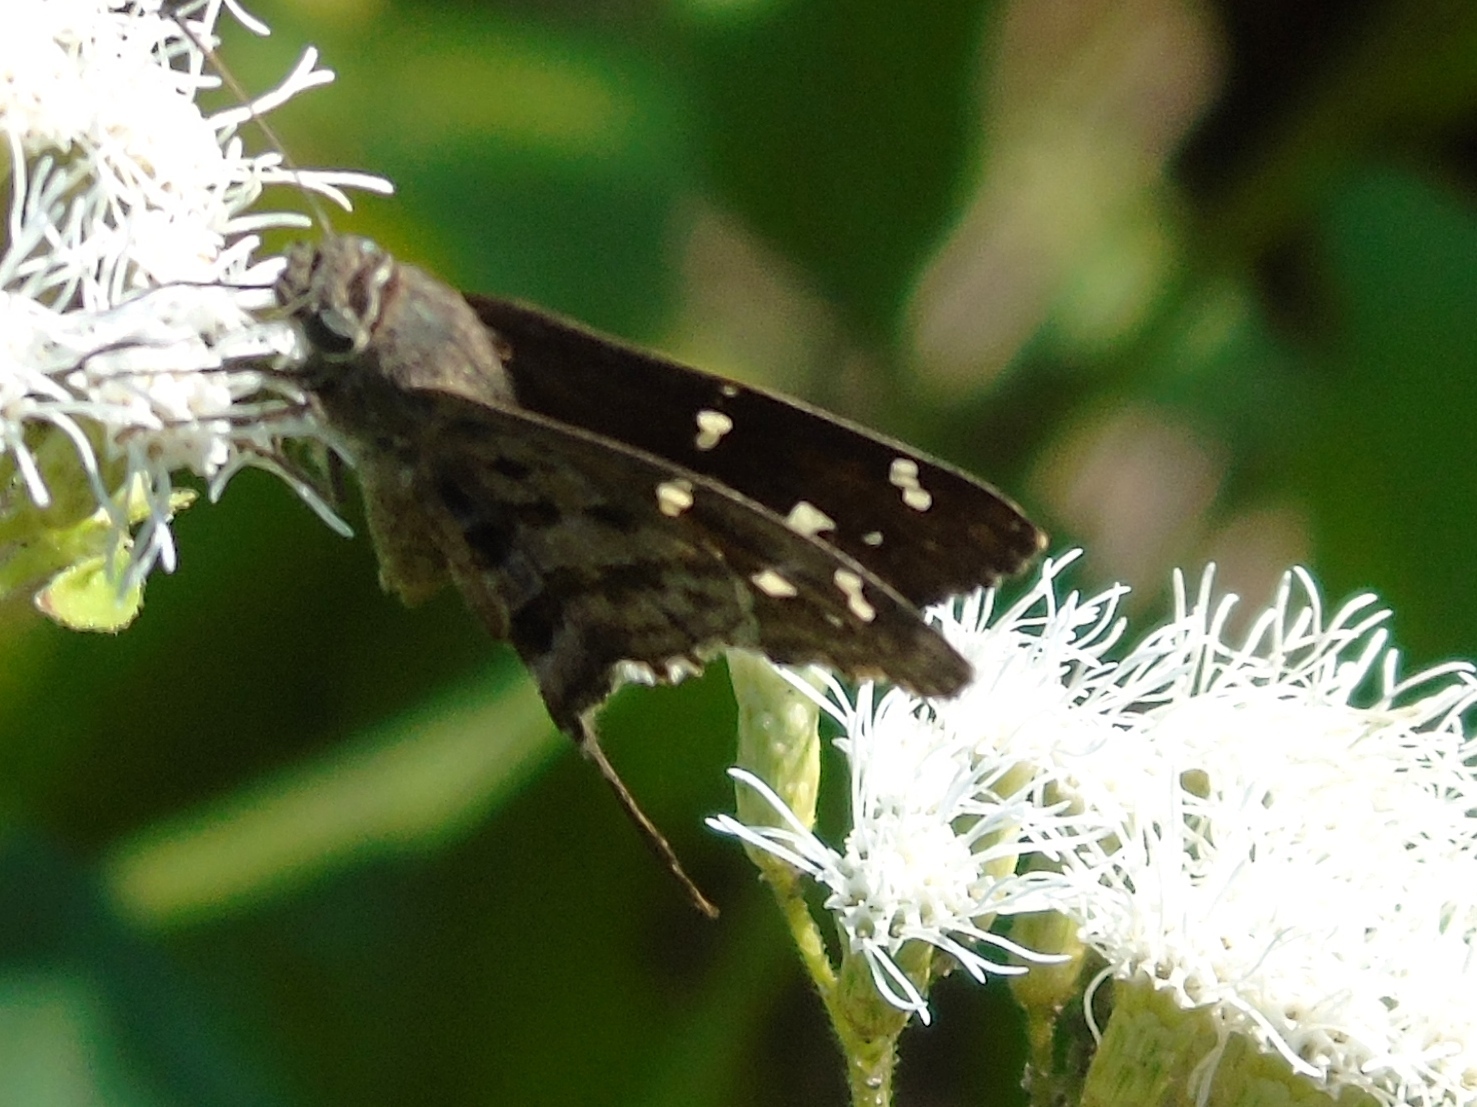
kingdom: Animalia
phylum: Arthropoda
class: Insecta
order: Lepidoptera
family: Hesperiidae
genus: Thorybes
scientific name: Thorybes
